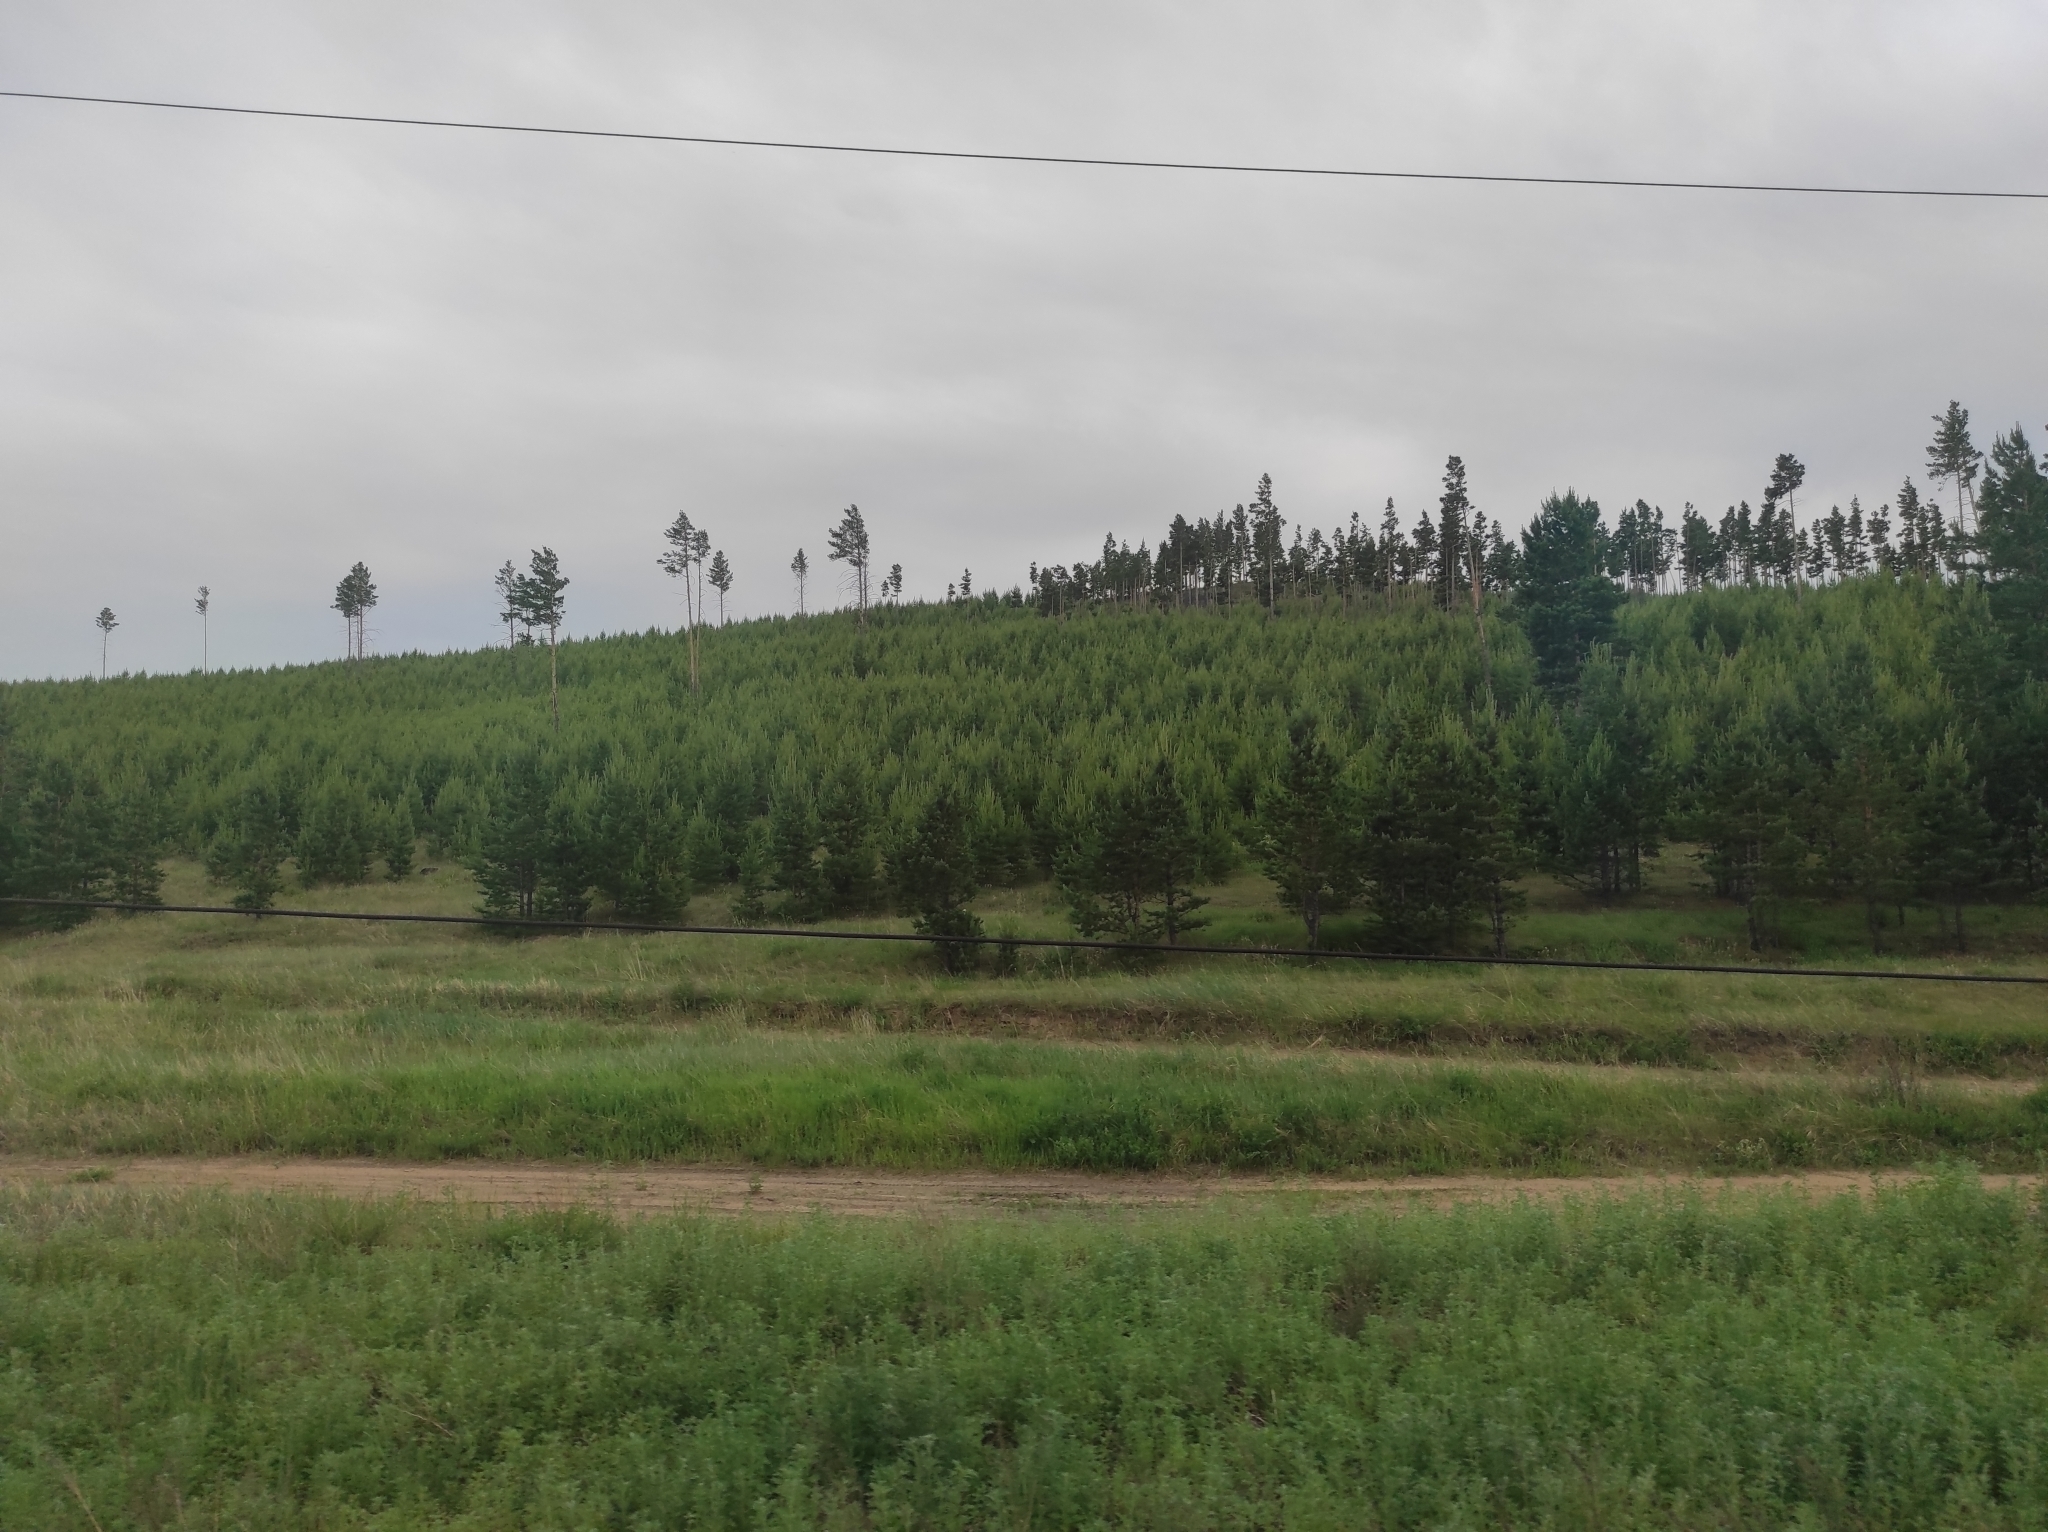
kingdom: Plantae
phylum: Tracheophyta
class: Pinopsida
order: Pinales
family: Pinaceae
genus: Pinus
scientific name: Pinus sylvestris
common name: Scots pine
